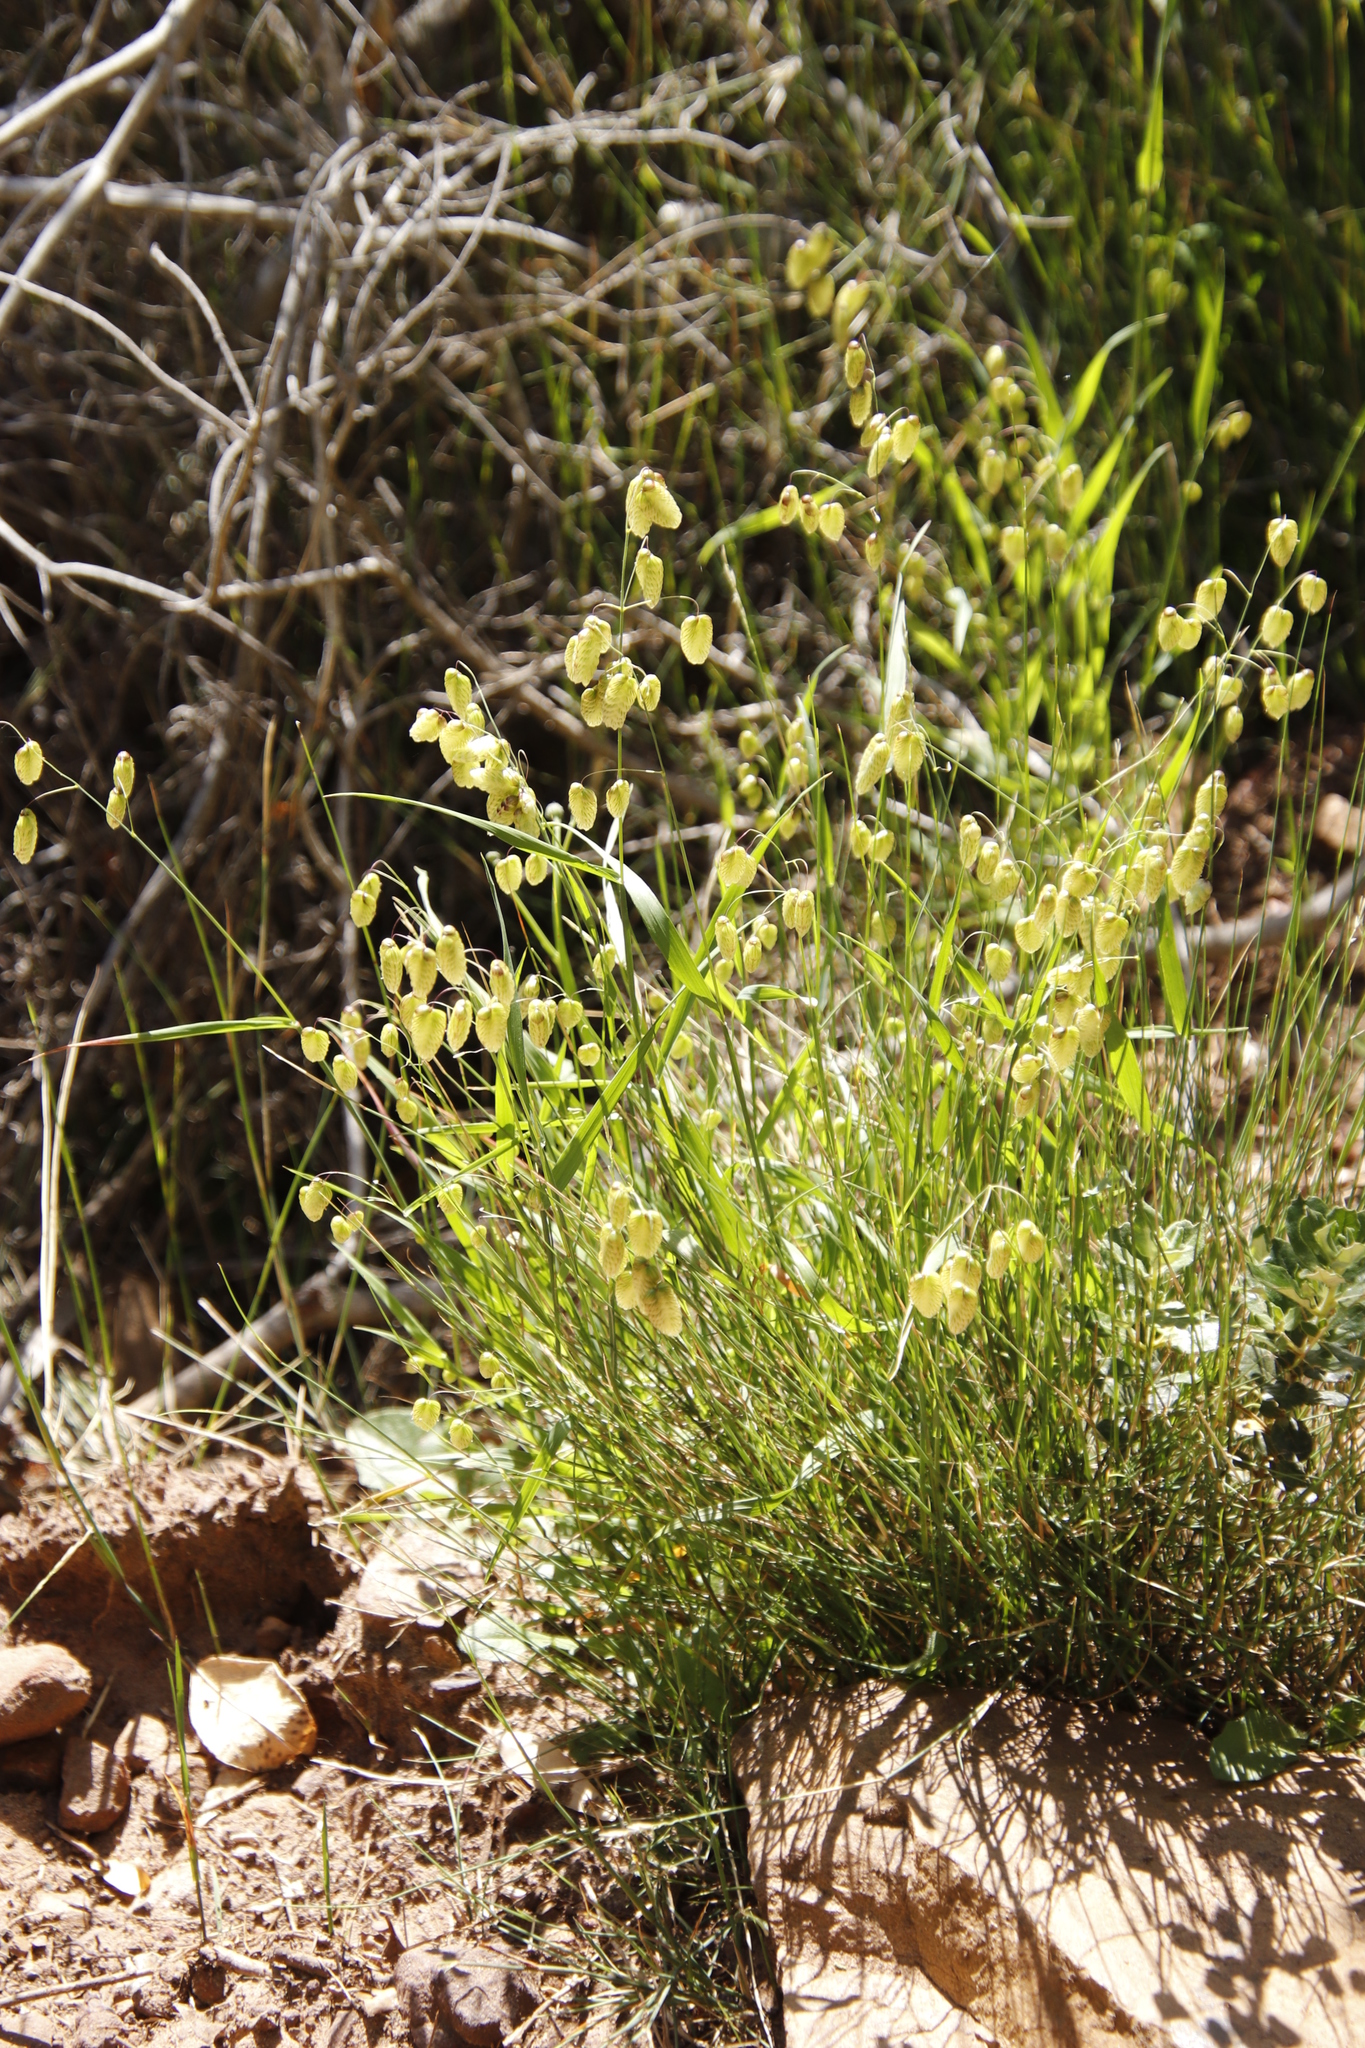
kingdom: Plantae
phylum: Tracheophyta
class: Liliopsida
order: Poales
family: Poaceae
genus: Briza
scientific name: Briza maxima
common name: Big quakinggrass
